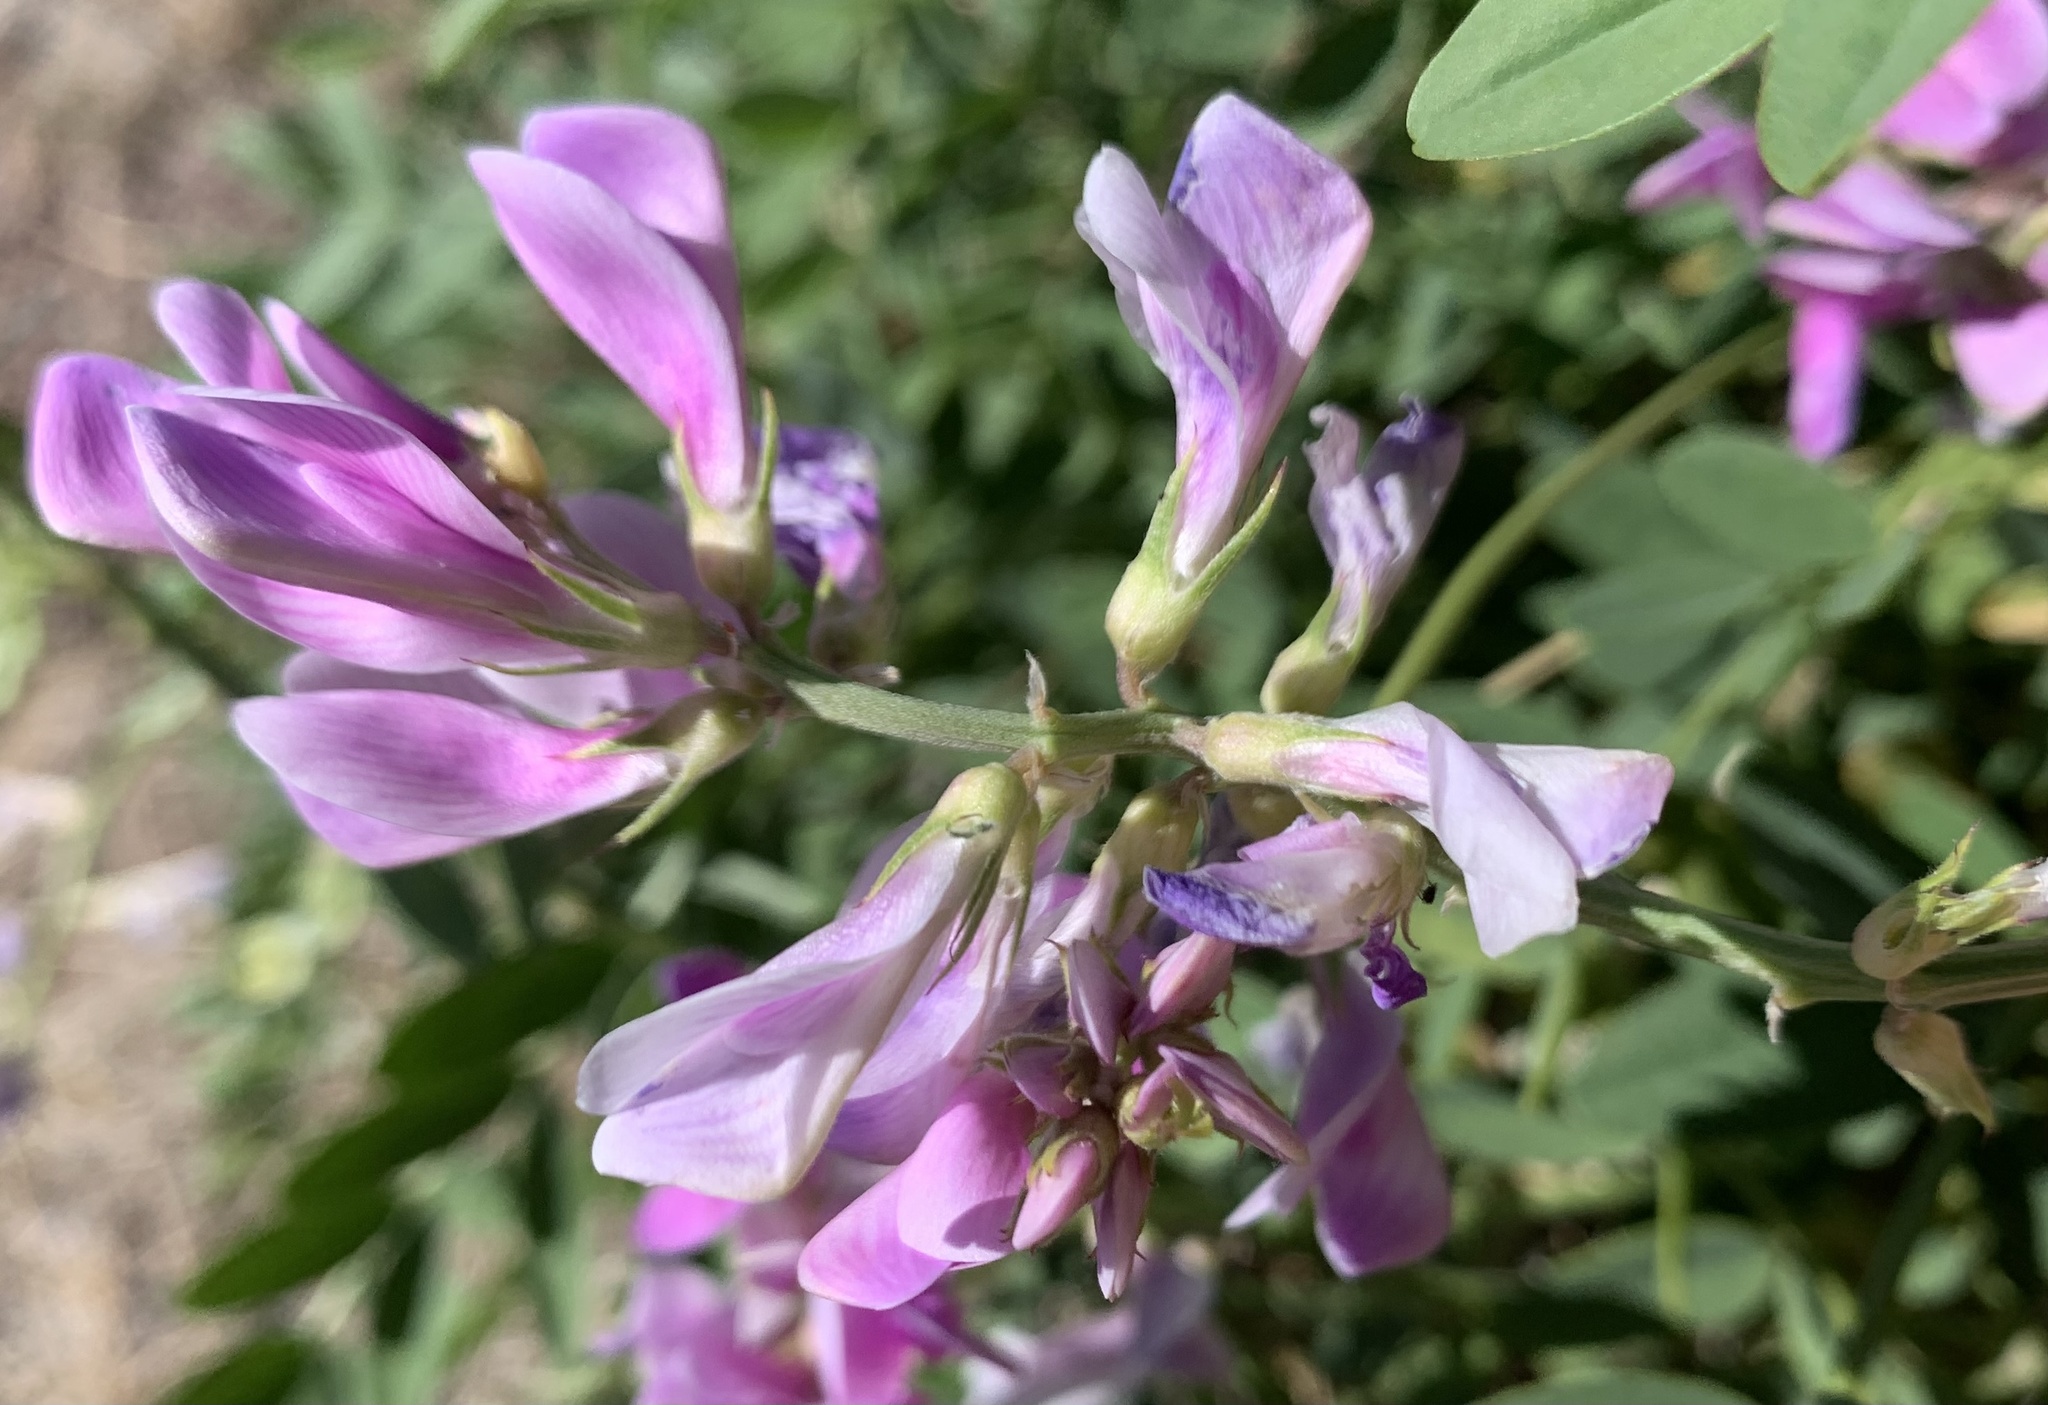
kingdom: Plantae
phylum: Tracheophyta
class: Magnoliopsida
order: Fabales
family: Fabaceae
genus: Hedysarum
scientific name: Hedysarum boreale
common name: Northern sweet-vetch
